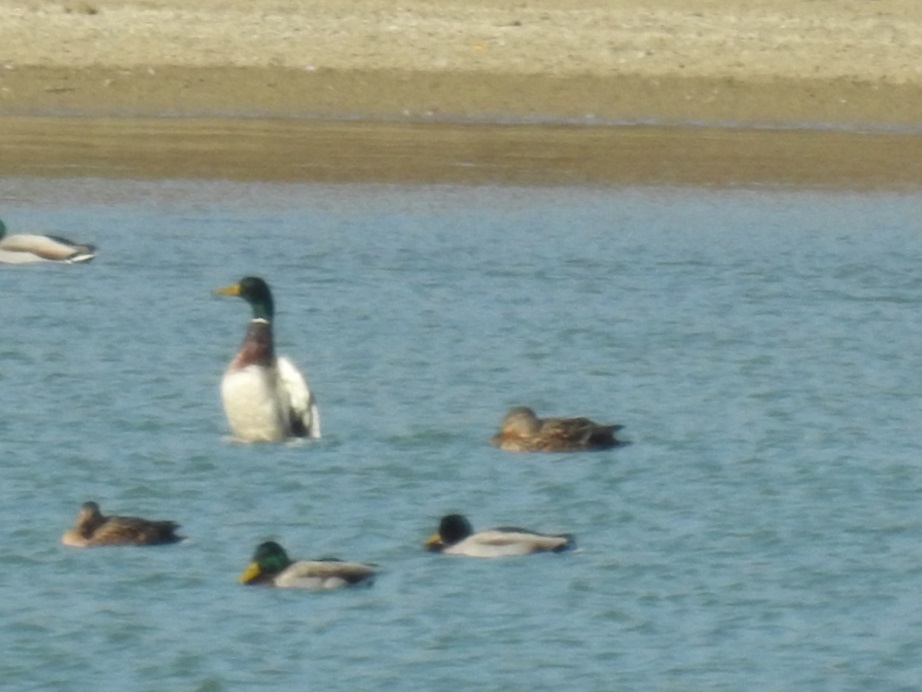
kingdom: Animalia
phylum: Chordata
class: Aves
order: Anseriformes
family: Anatidae
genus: Anas
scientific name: Anas platyrhynchos
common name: Mallard
